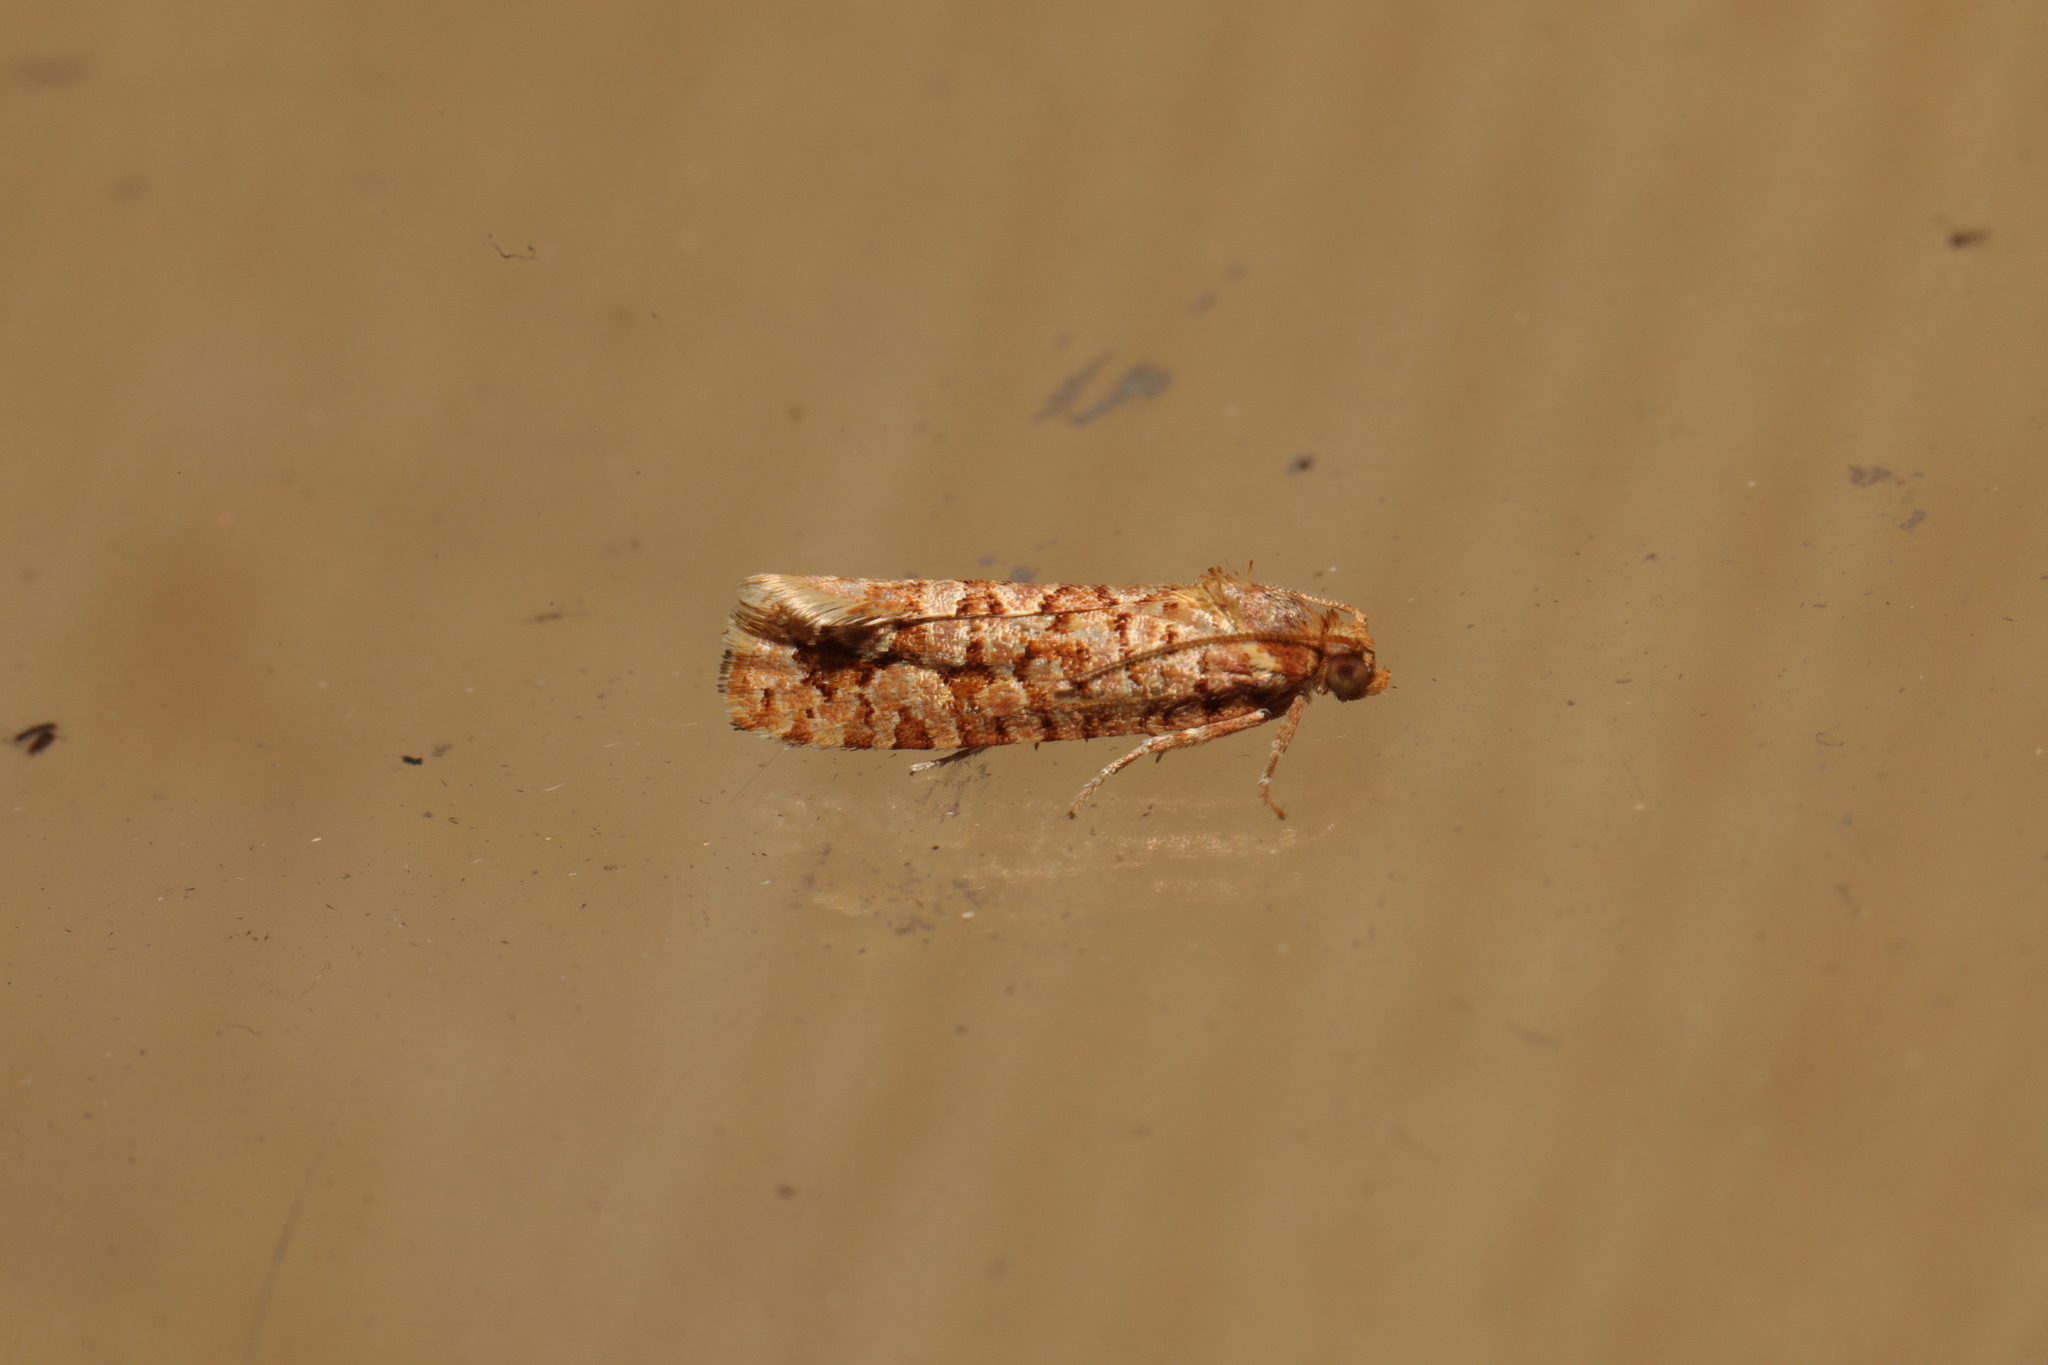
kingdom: Animalia
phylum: Arthropoda
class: Insecta
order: Lepidoptera
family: Tortricidae
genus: Lozotaeniodes
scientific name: Lozotaeniodes formosana
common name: Orange pine twist
